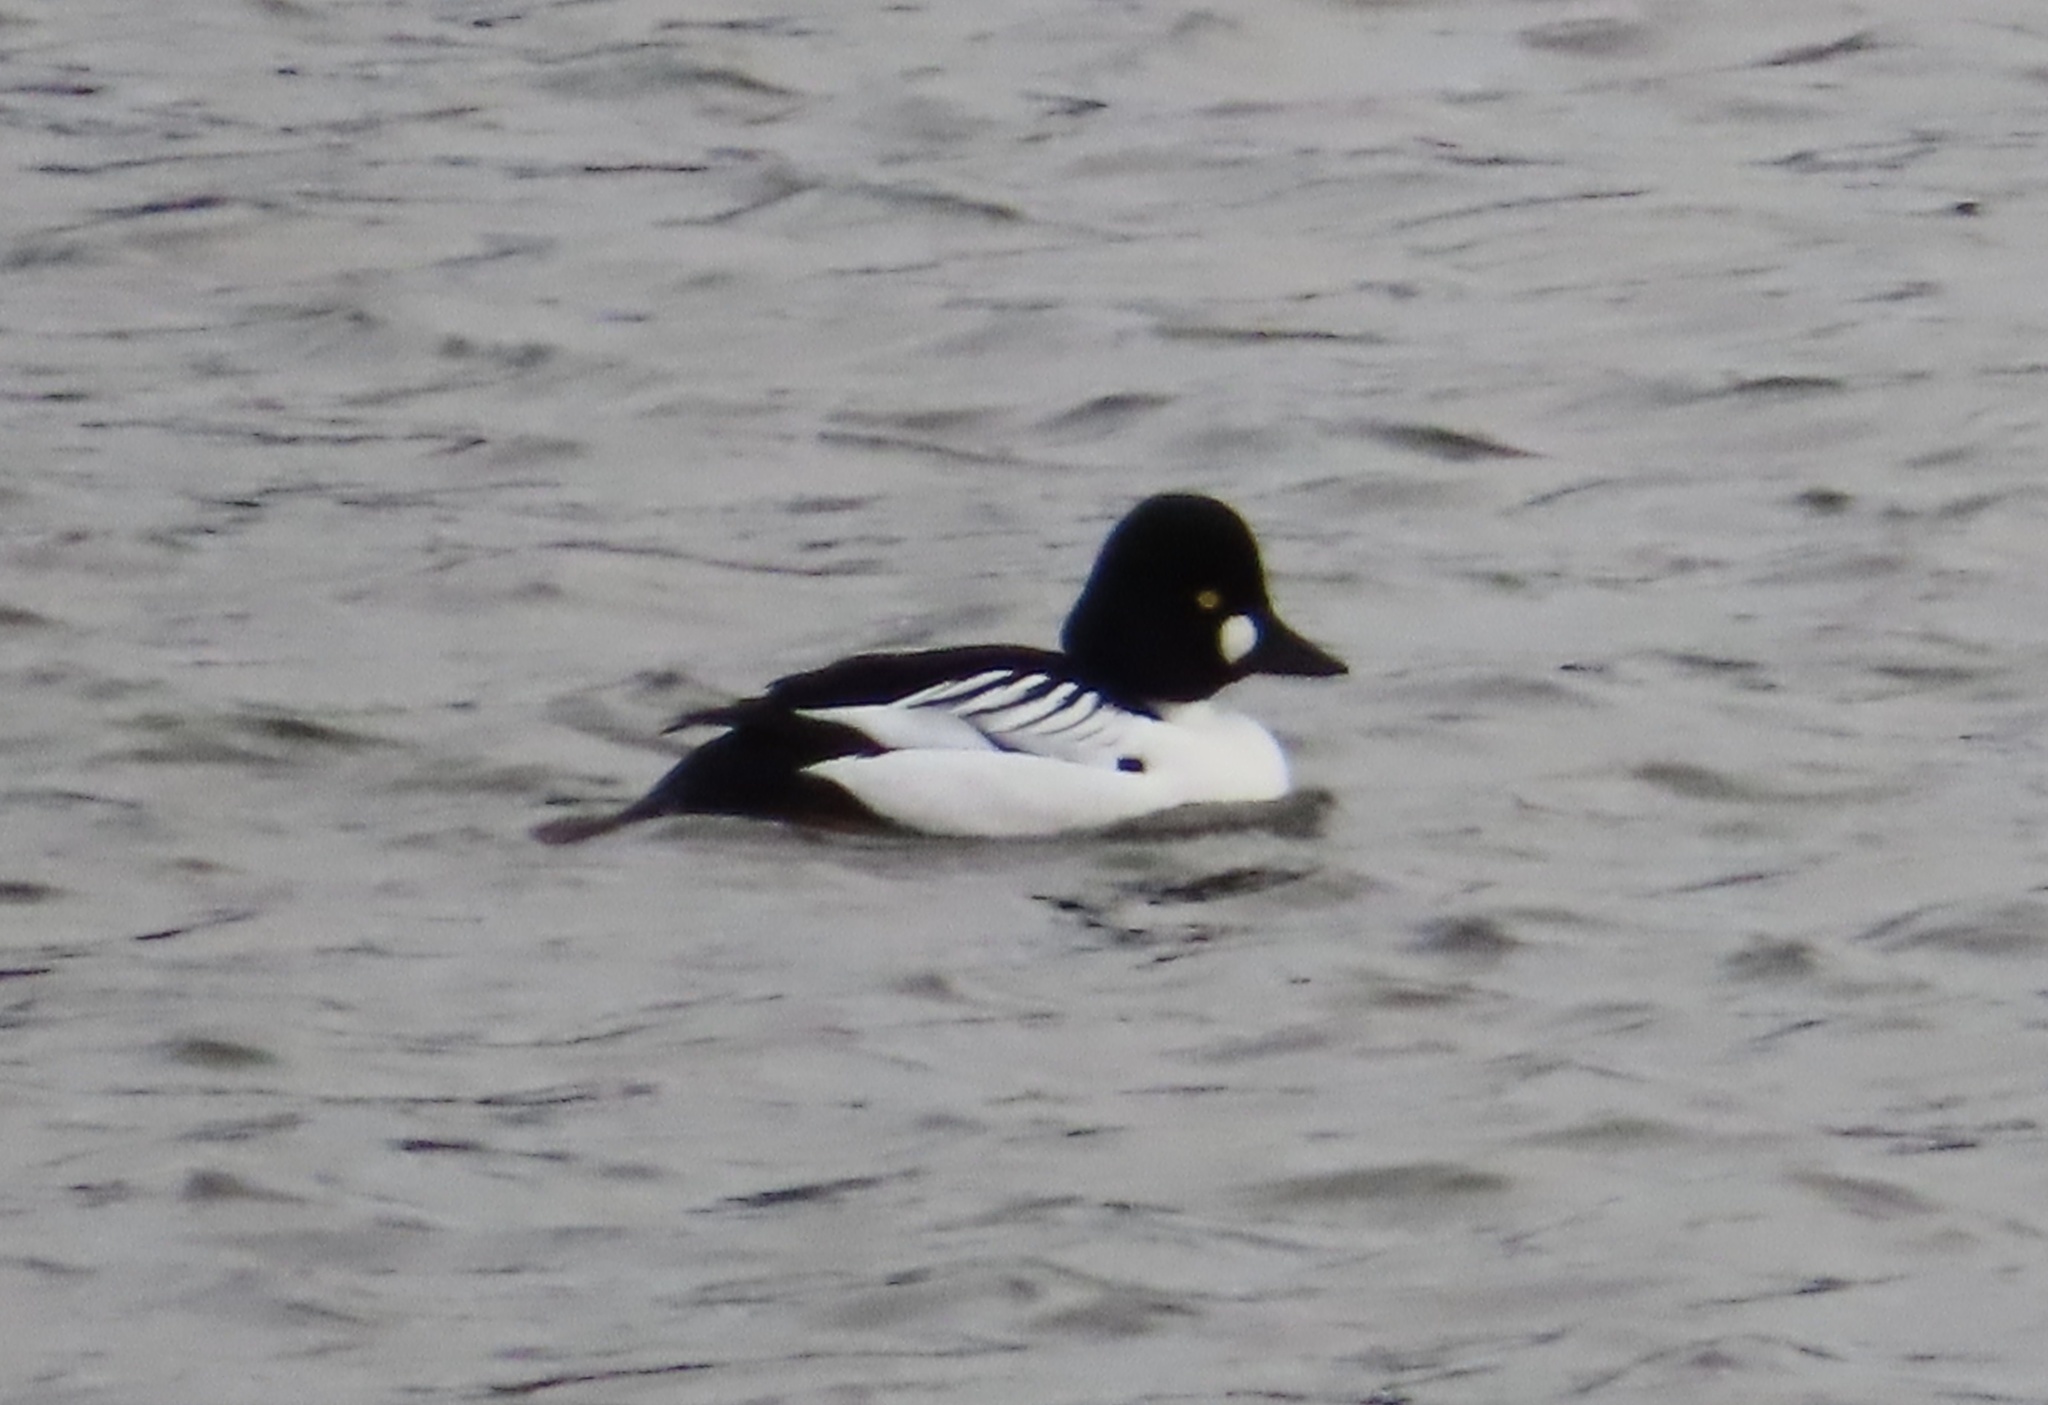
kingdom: Animalia
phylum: Chordata
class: Aves
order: Anseriformes
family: Anatidae
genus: Bucephala
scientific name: Bucephala clangula
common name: Common goldeneye
